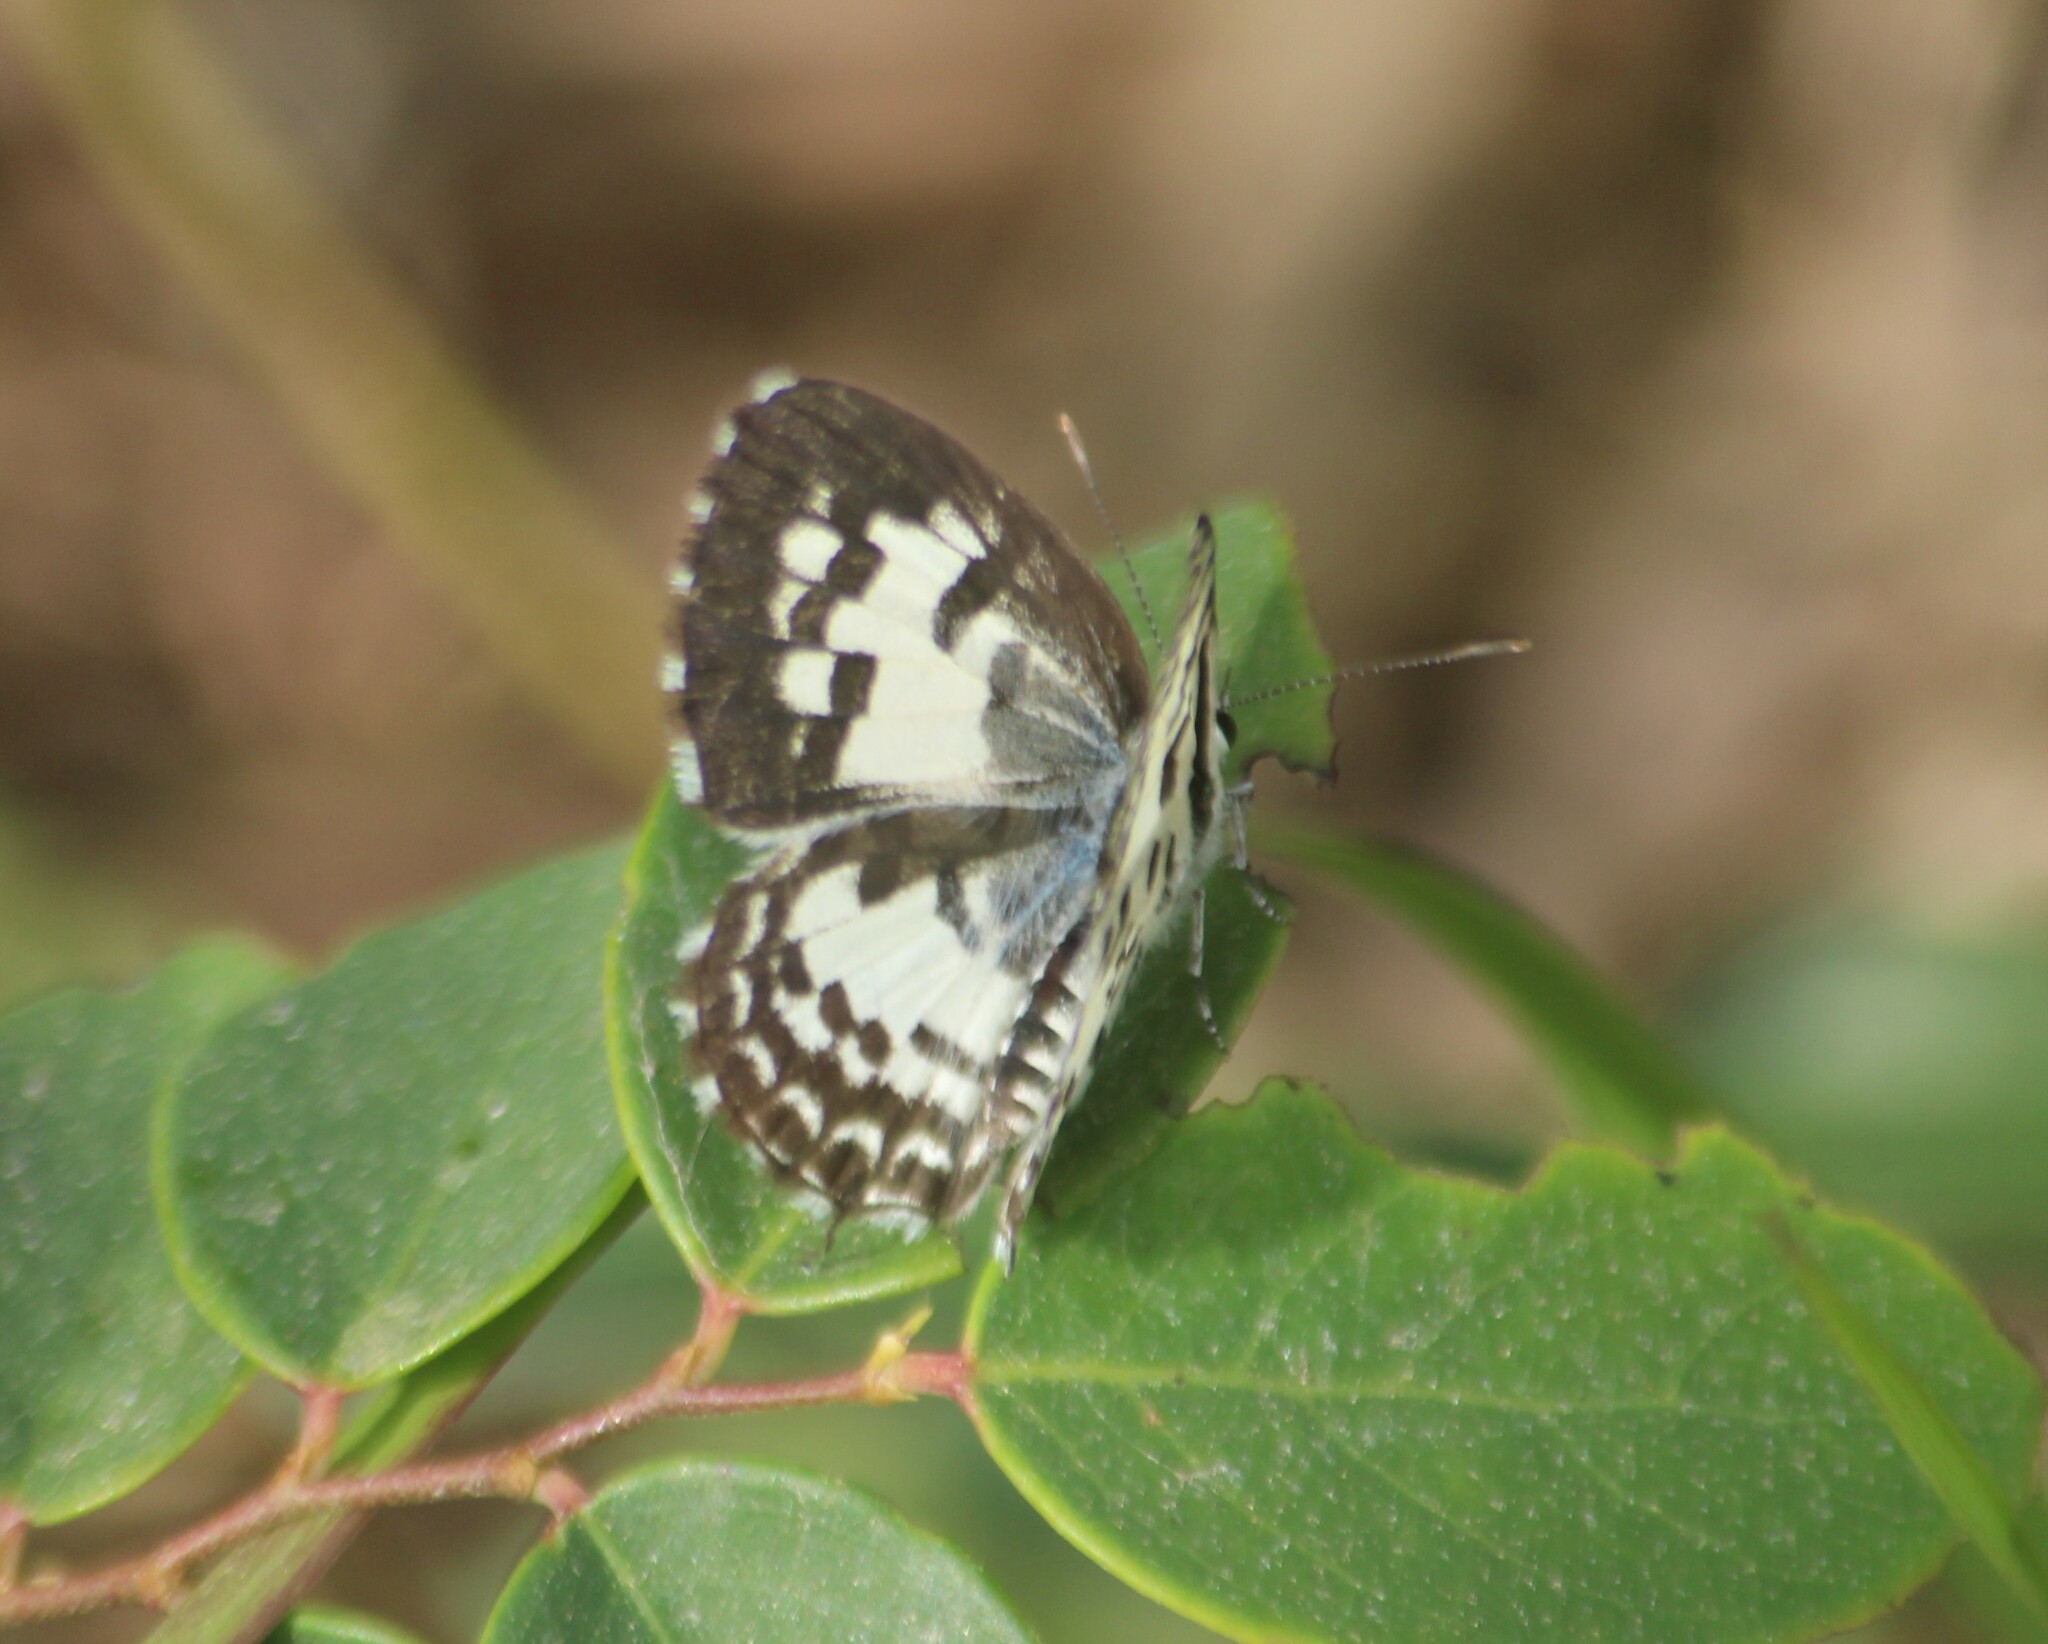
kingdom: Animalia
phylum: Arthropoda
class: Insecta
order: Lepidoptera
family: Lycaenidae
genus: Castalius
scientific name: Castalius rosimon
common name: Common pierrot
